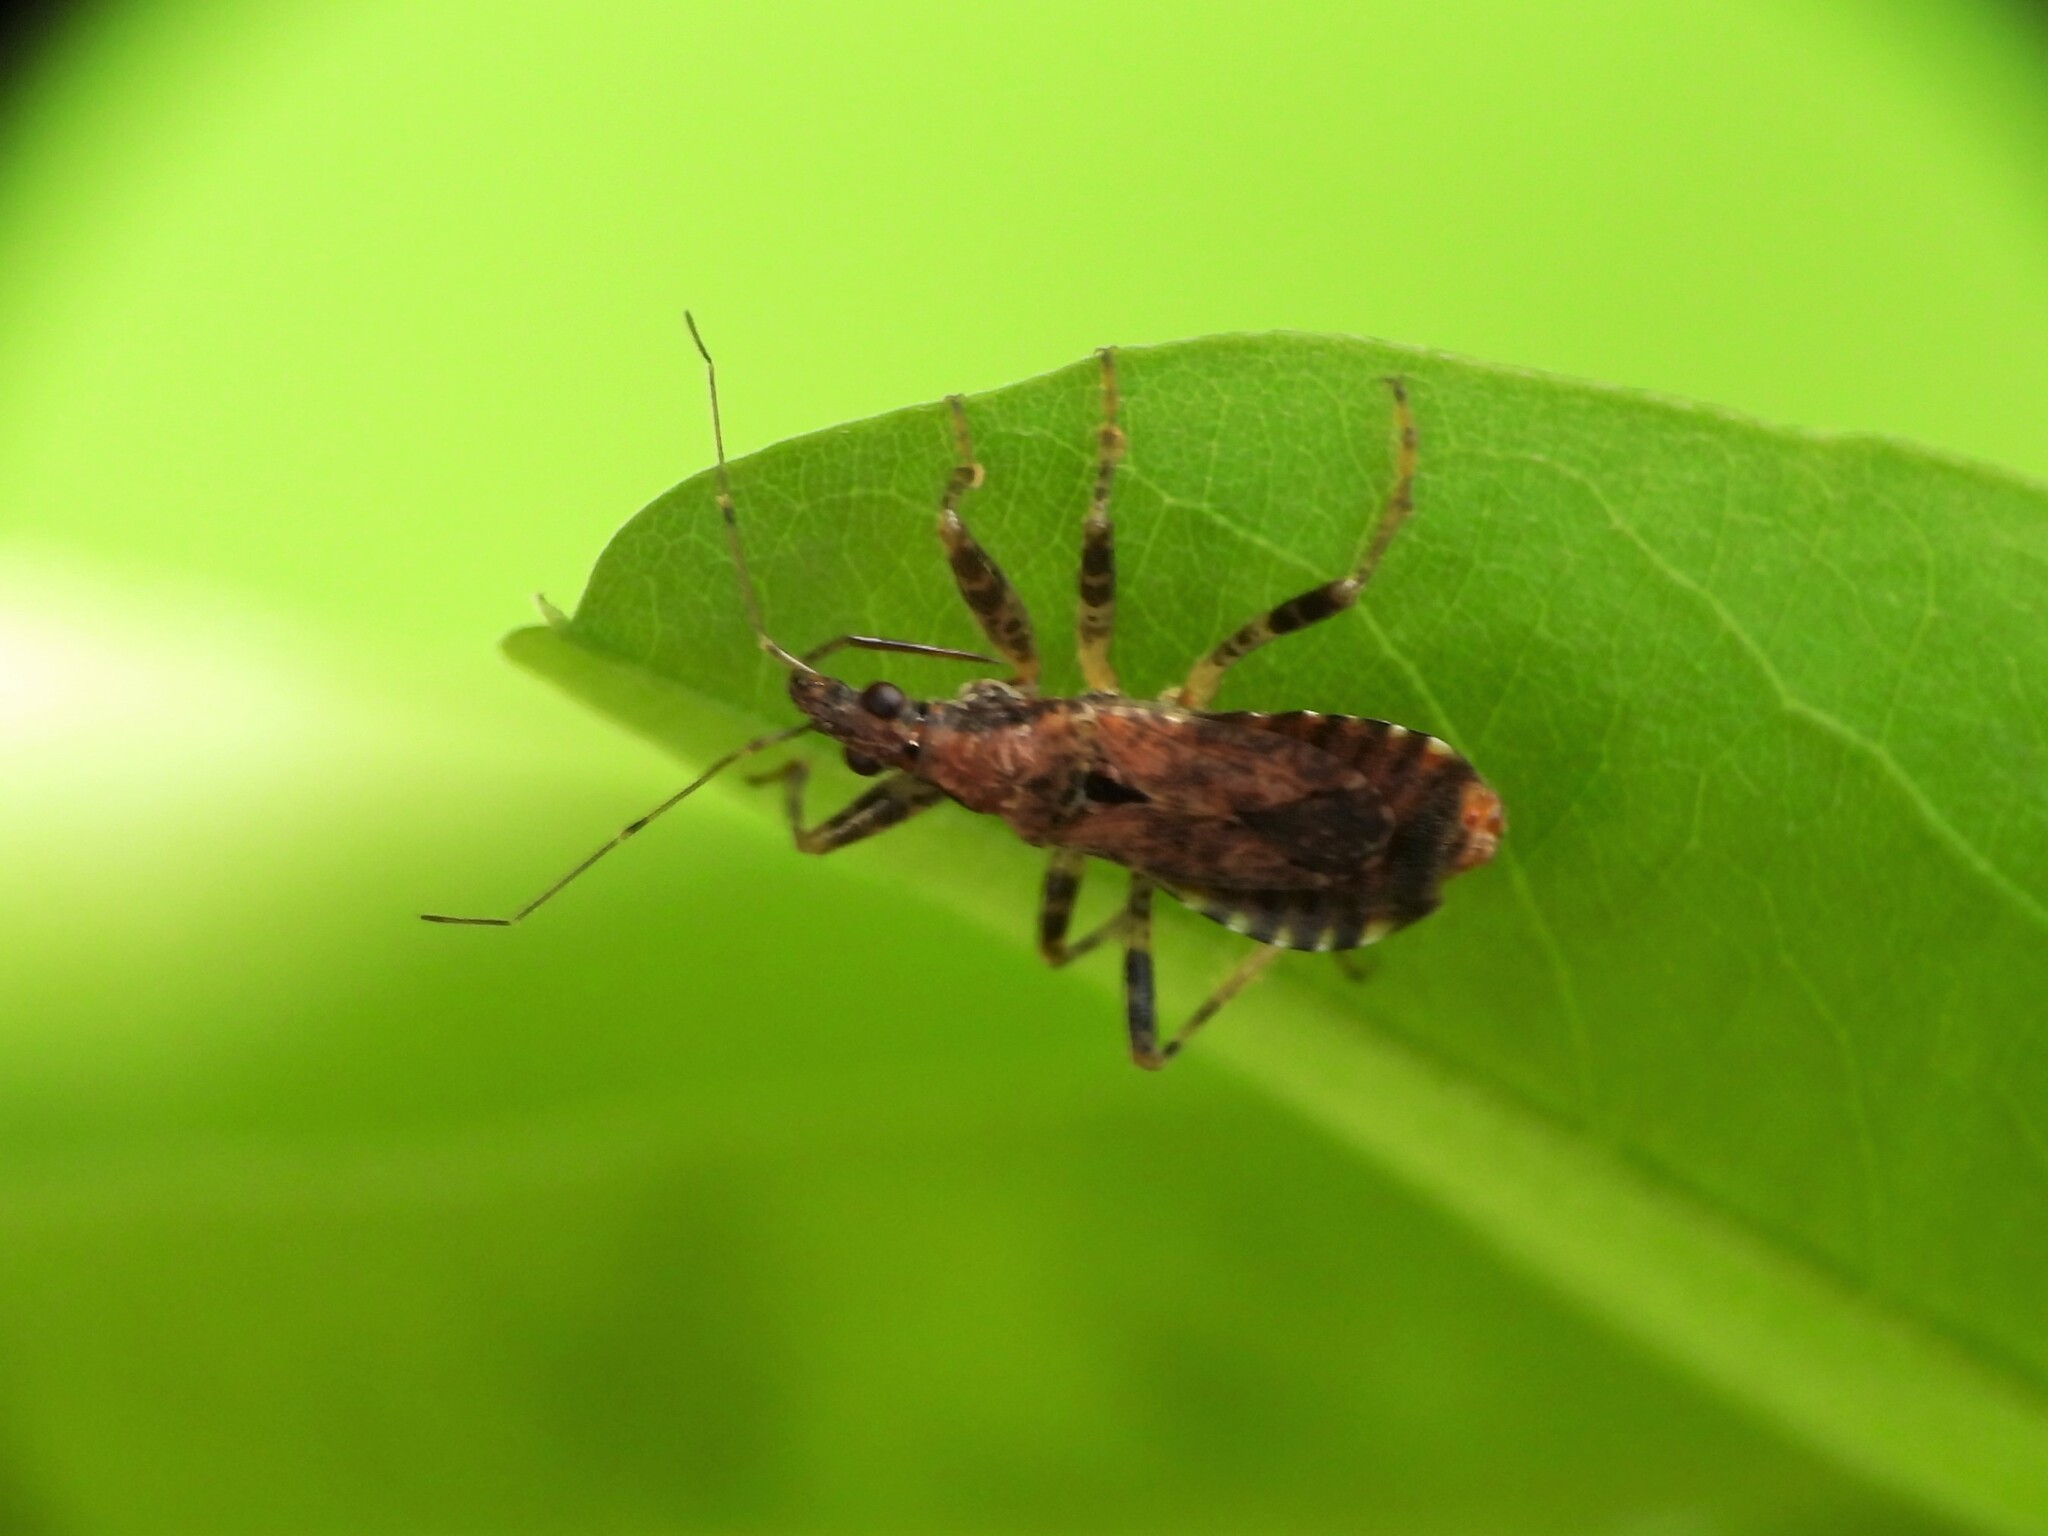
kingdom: Animalia
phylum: Arthropoda
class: Insecta
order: Hemiptera
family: Nabidae
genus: Himacerus
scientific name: Himacerus mirmicoides
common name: Ant damsel bug
